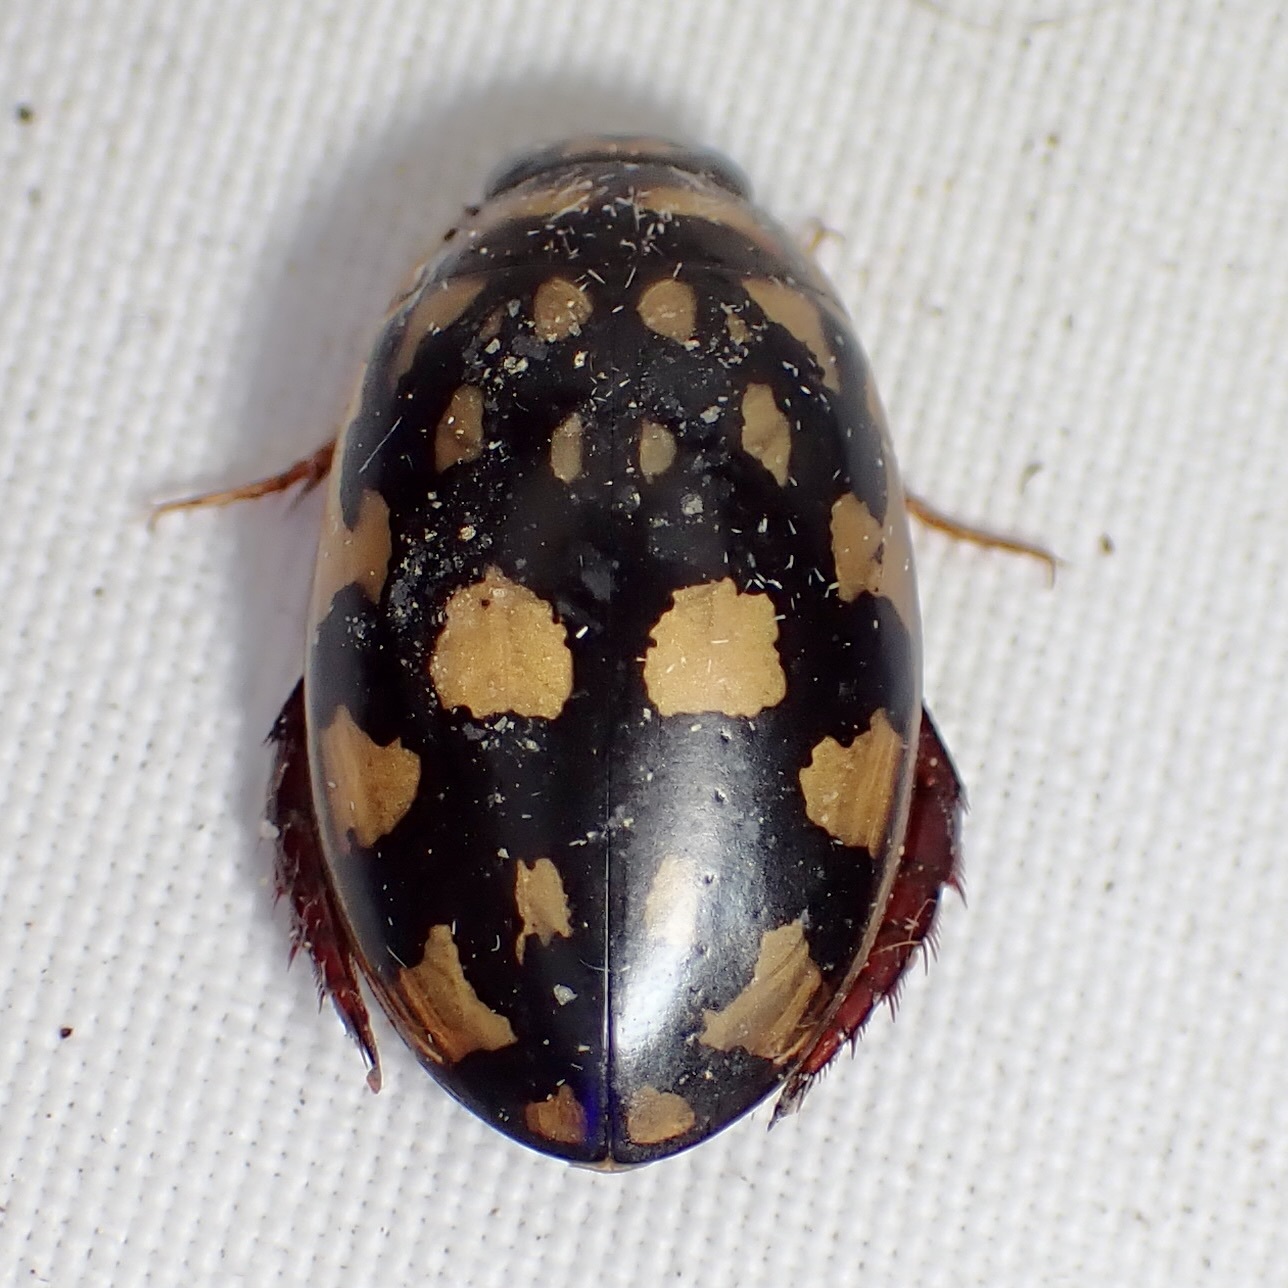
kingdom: Animalia
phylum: Arthropoda
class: Insecta
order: Coleoptera
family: Dytiscidae
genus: Thermonectus
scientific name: Thermonectus marmoratus
